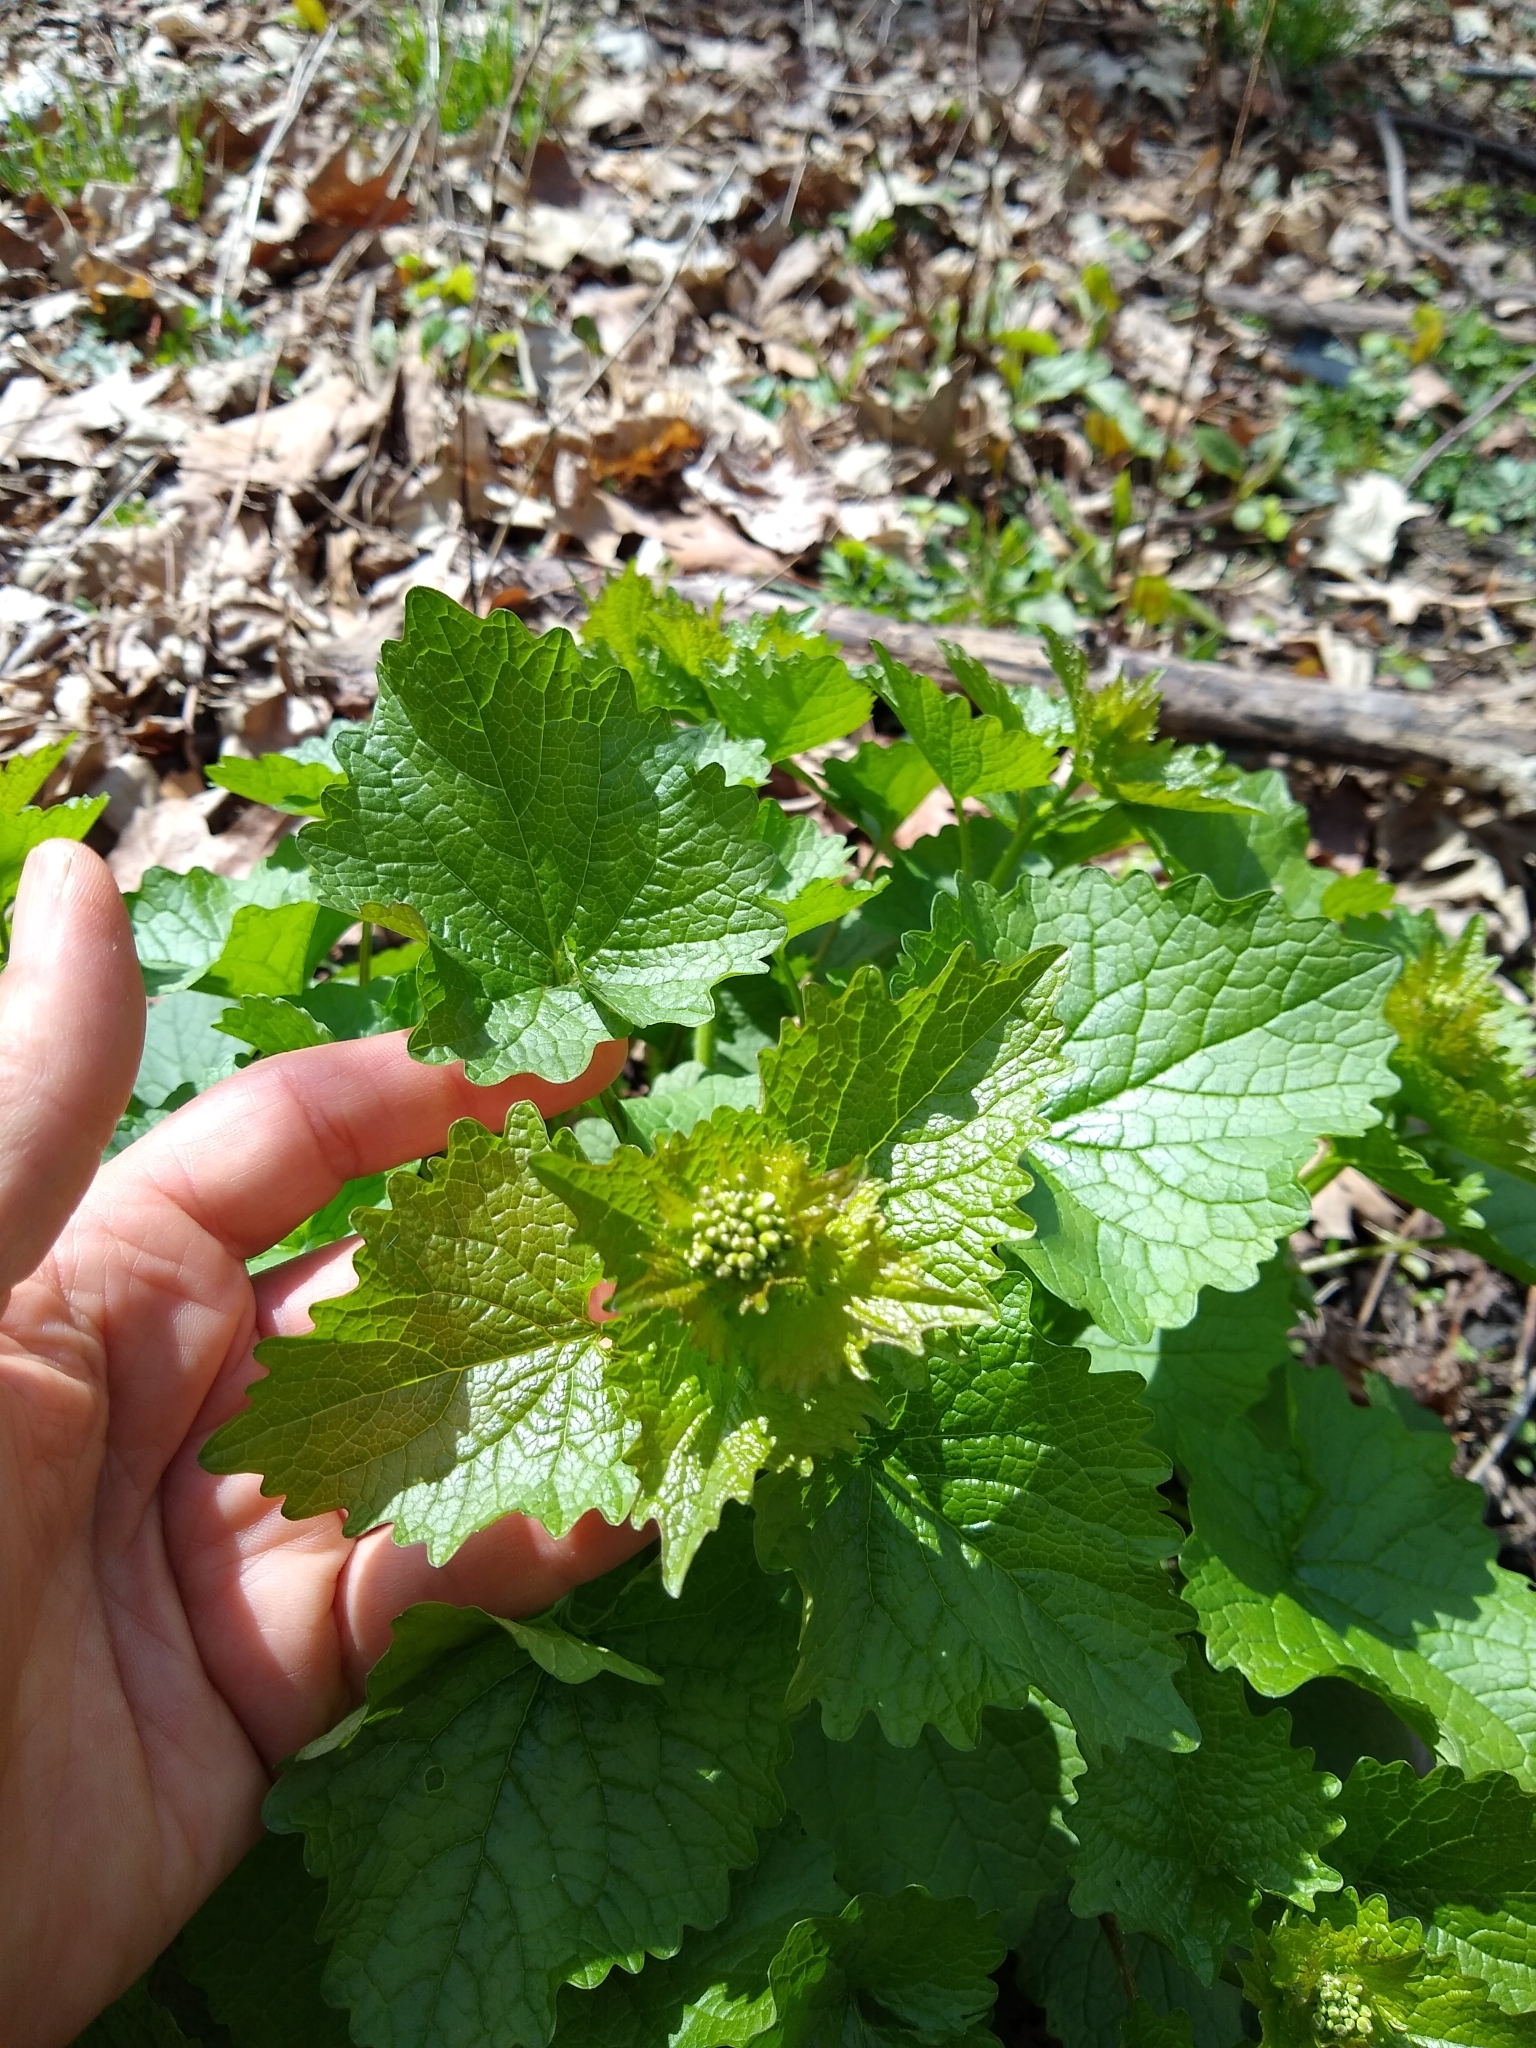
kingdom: Plantae
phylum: Tracheophyta
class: Magnoliopsida
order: Brassicales
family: Brassicaceae
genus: Alliaria
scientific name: Alliaria petiolata
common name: Garlic mustard
